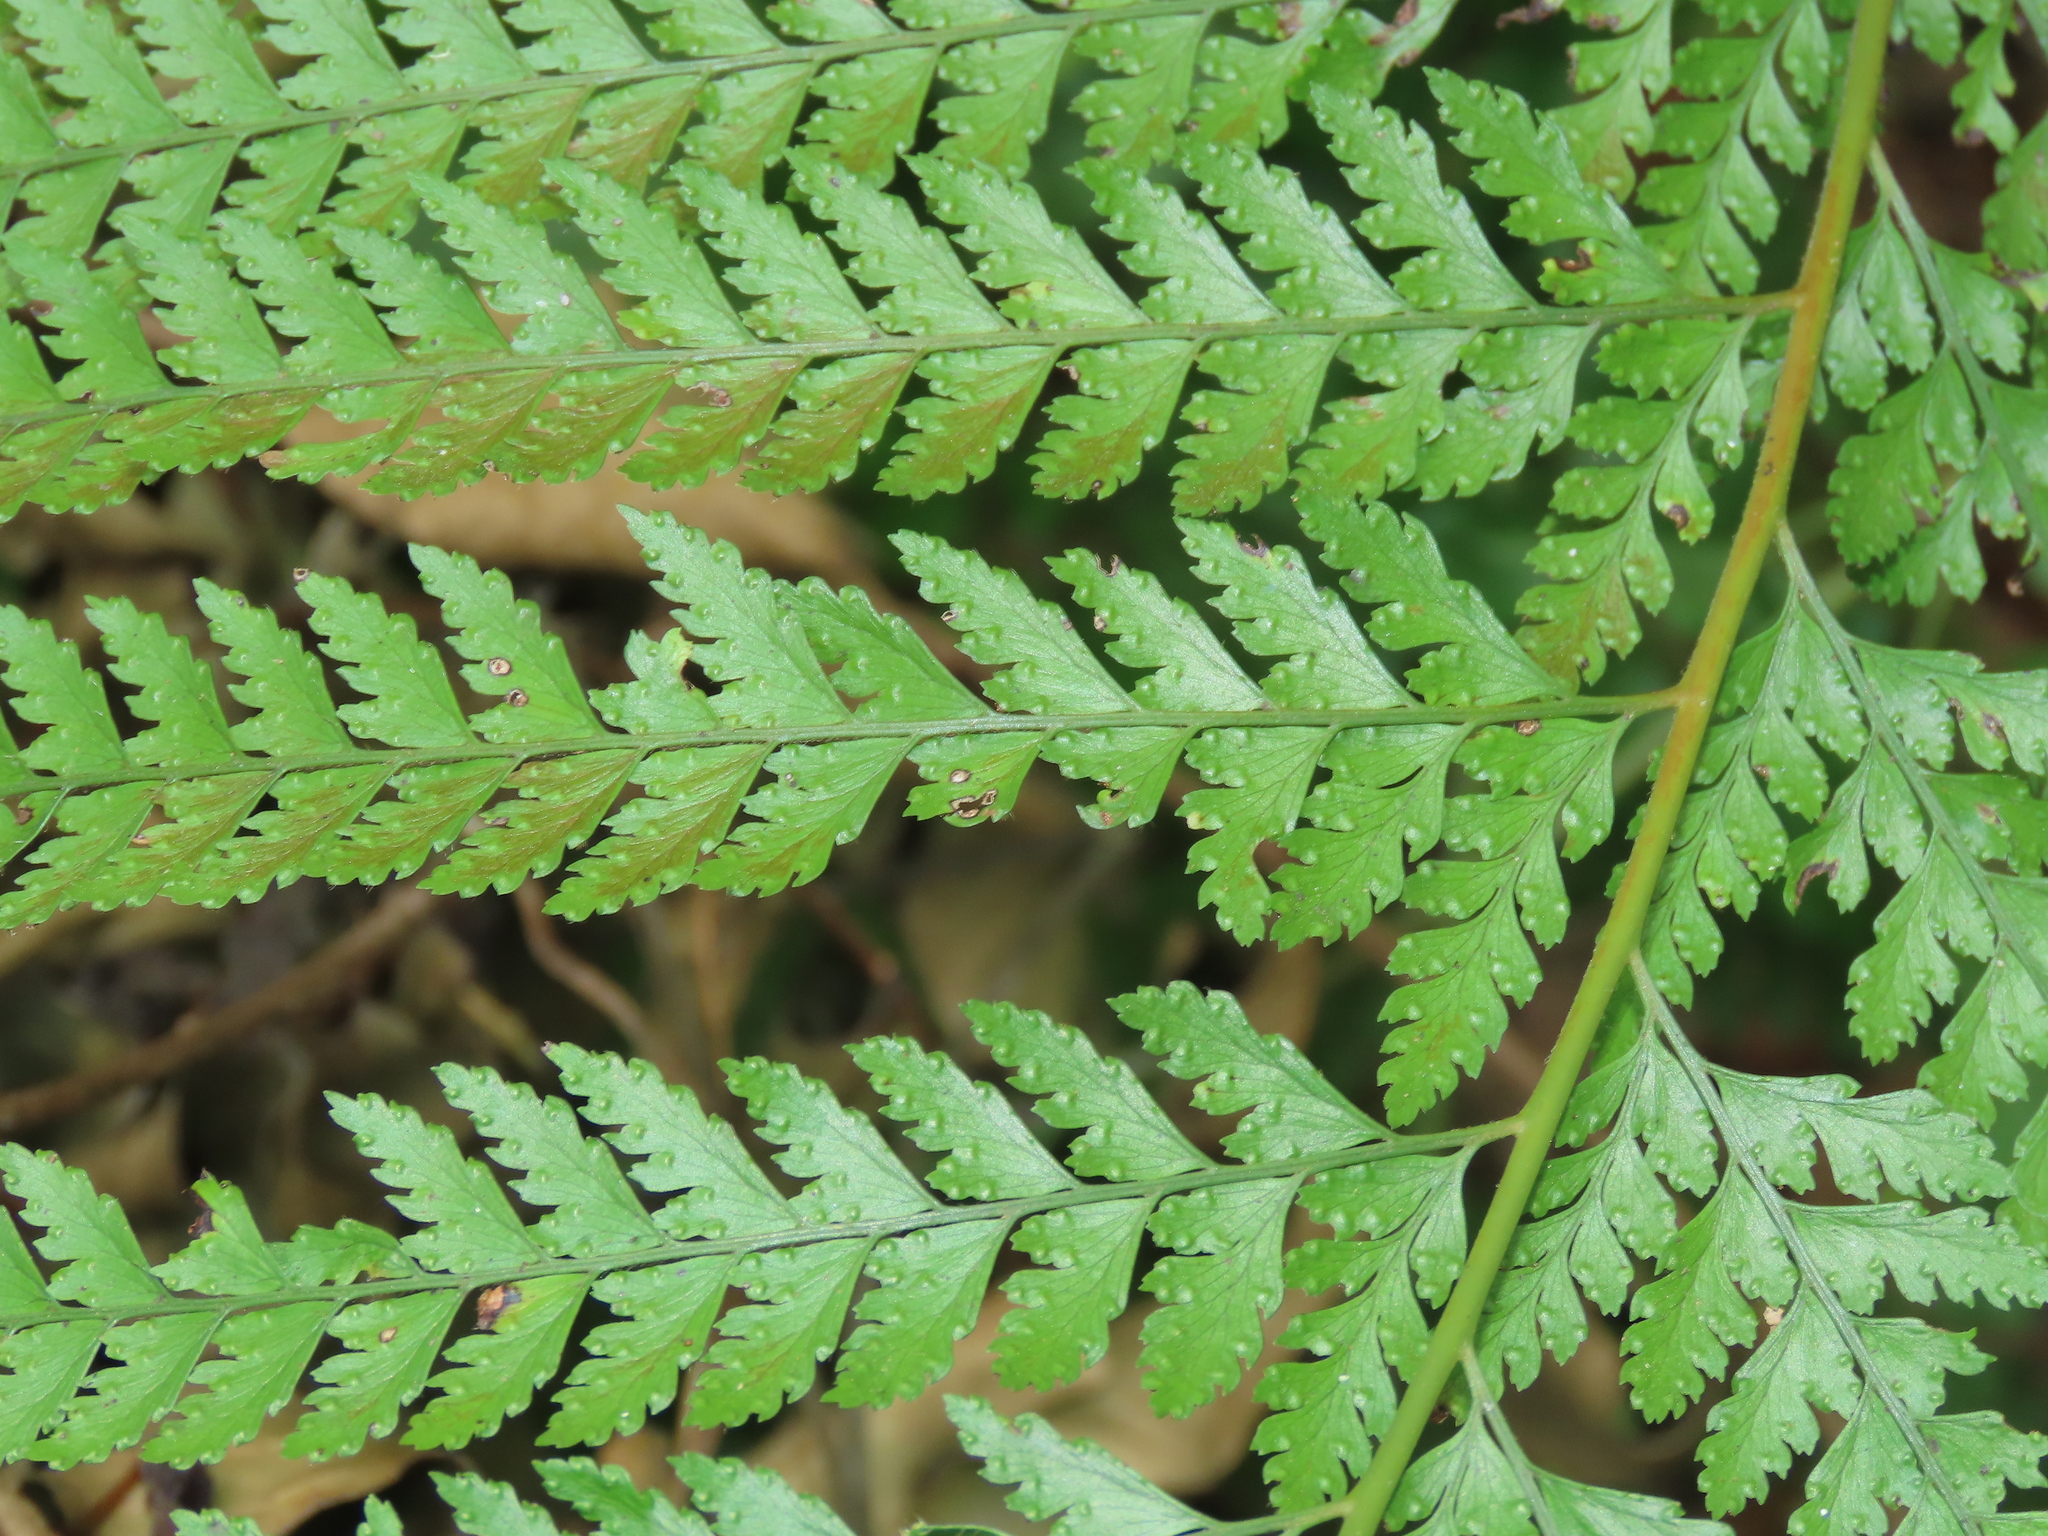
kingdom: Plantae
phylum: Tracheophyta
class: Polypodiopsida
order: Polypodiales
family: Dennstaedtiaceae
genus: Microlepia
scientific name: Microlepia strigosa
